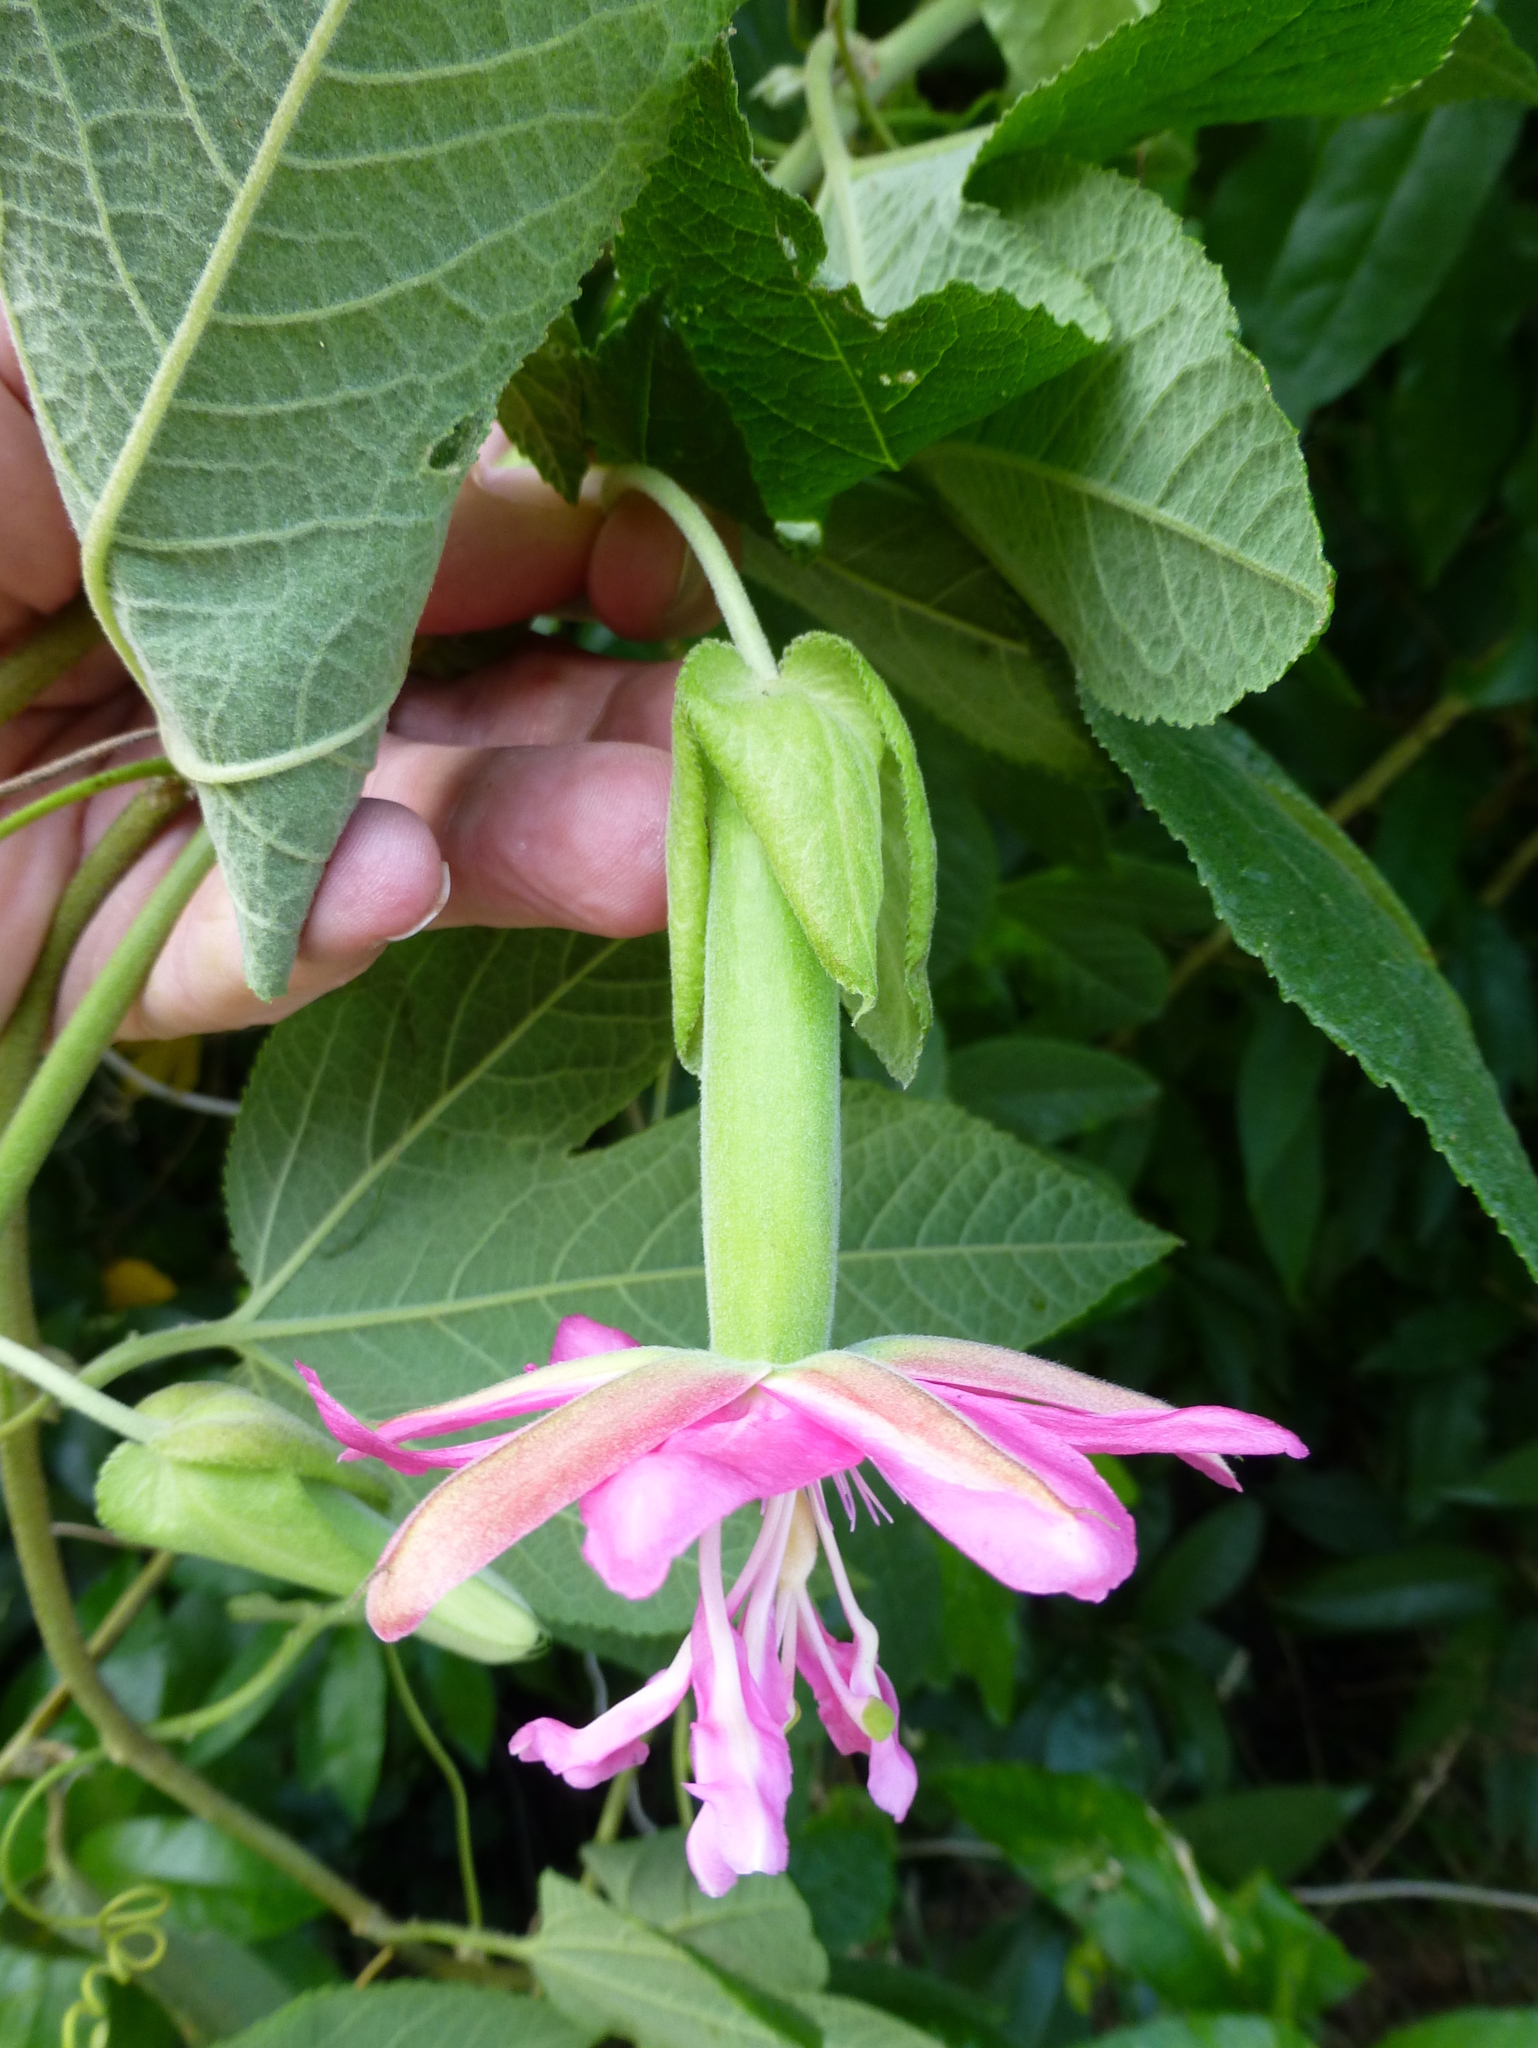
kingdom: Plantae
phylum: Tracheophyta
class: Magnoliopsida
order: Malpighiales
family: Passifloraceae
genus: Passiflora
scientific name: Passiflora rosea
